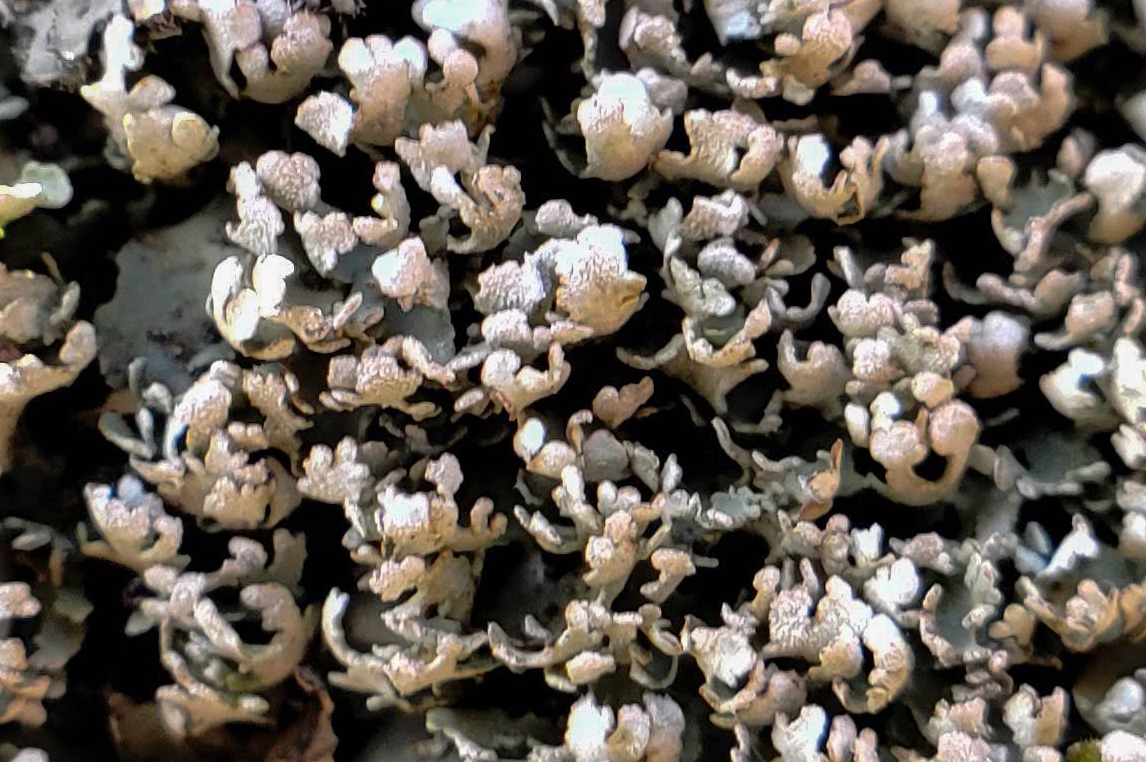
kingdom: Fungi
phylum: Ascomycota
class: Lecanoromycetes
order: Lecanorales
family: Cladoniaceae
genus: Cladonia
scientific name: Cladonia apodocarpa
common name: Stalkless cladonia
